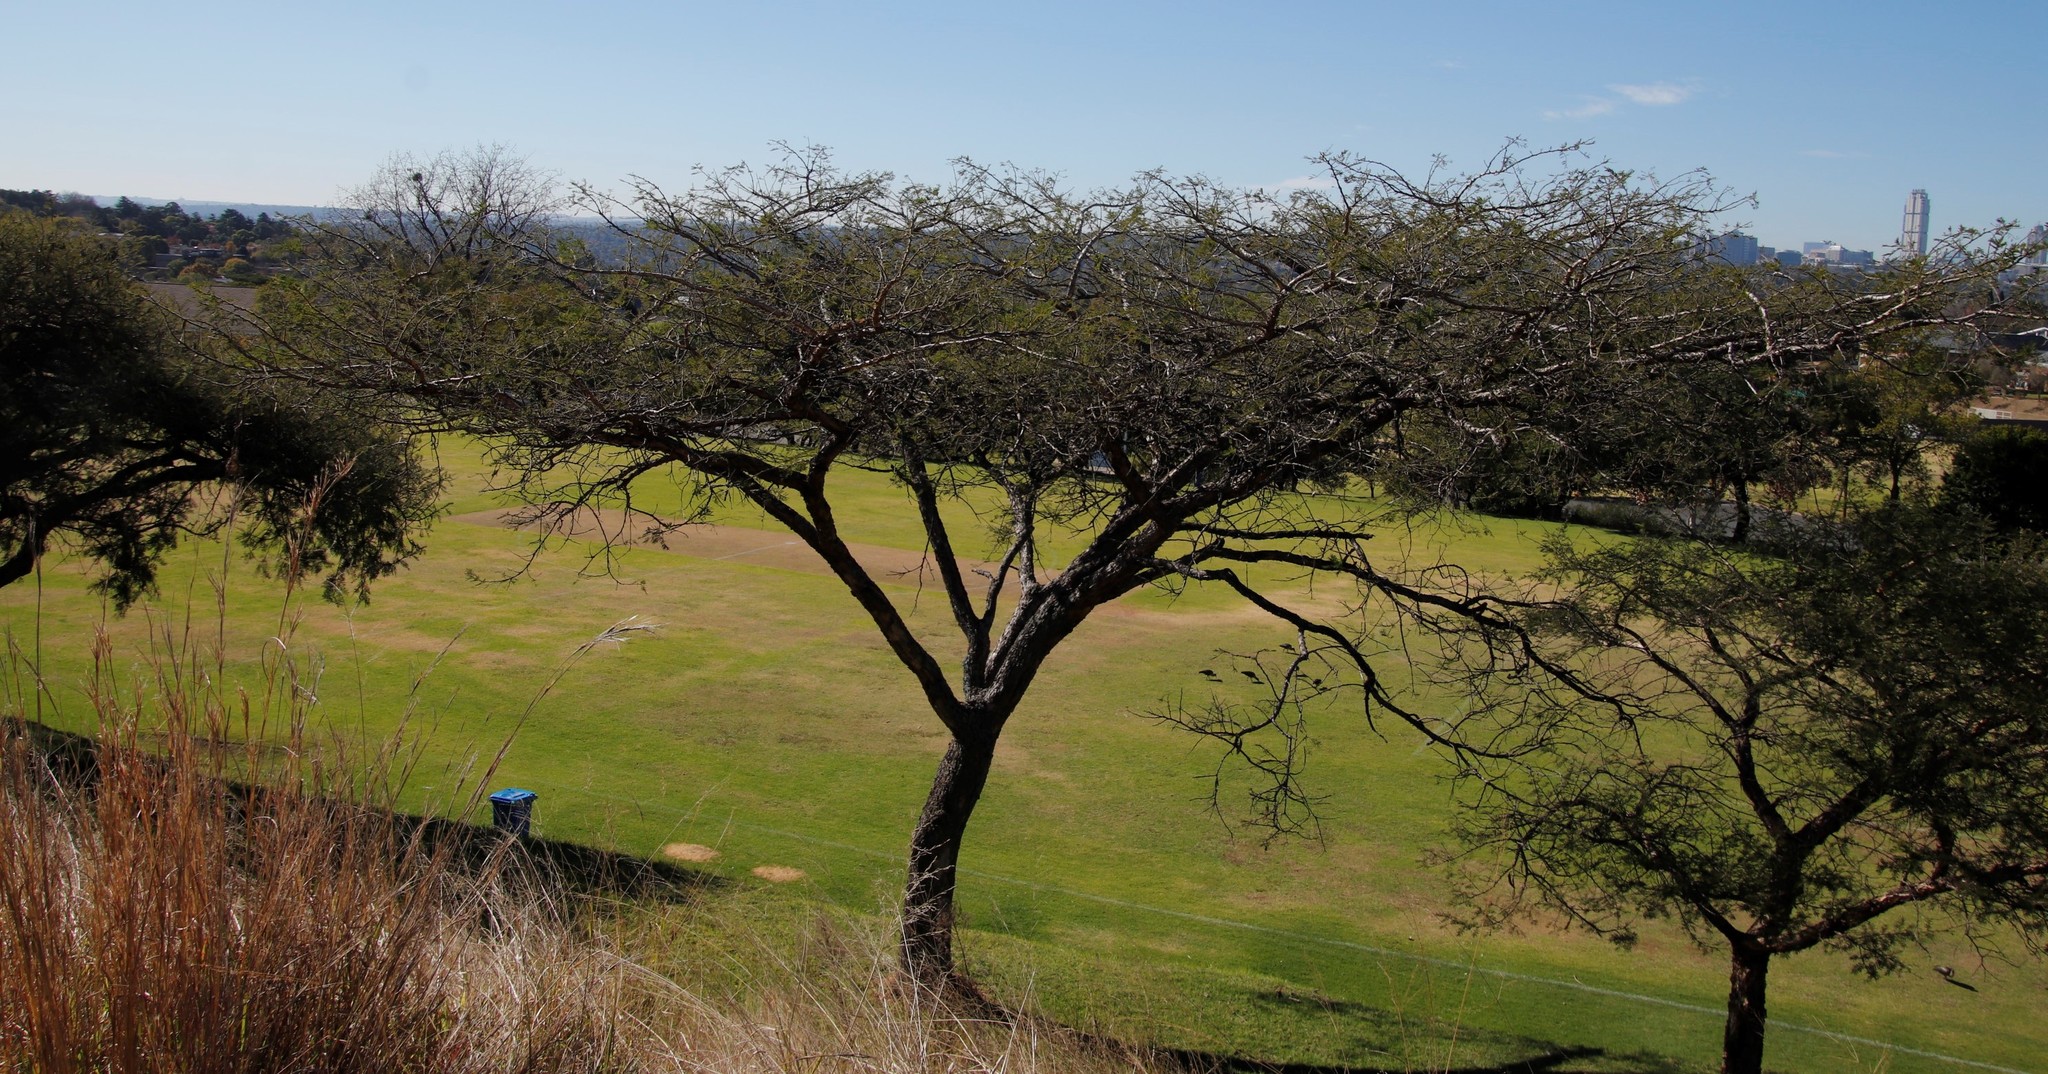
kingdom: Plantae
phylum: Tracheophyta
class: Magnoliopsida
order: Fabales
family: Fabaceae
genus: Vachellia
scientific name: Vachellia tortilis
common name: Umbrella thorn acacia
